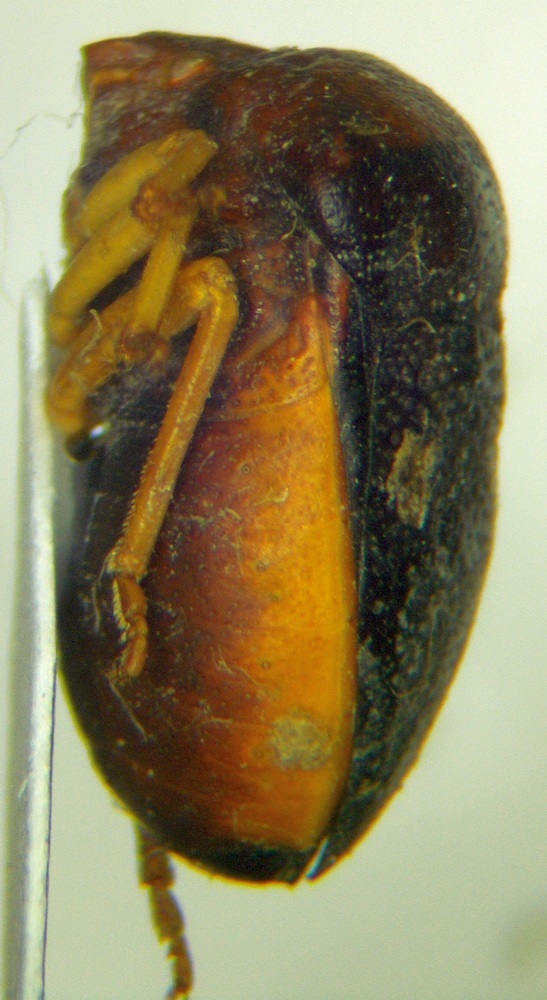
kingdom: Animalia
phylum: Arthropoda
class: Insecta
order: Hemiptera
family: Pentatomidae
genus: Ventocoris
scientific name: Ventocoris rusticus
